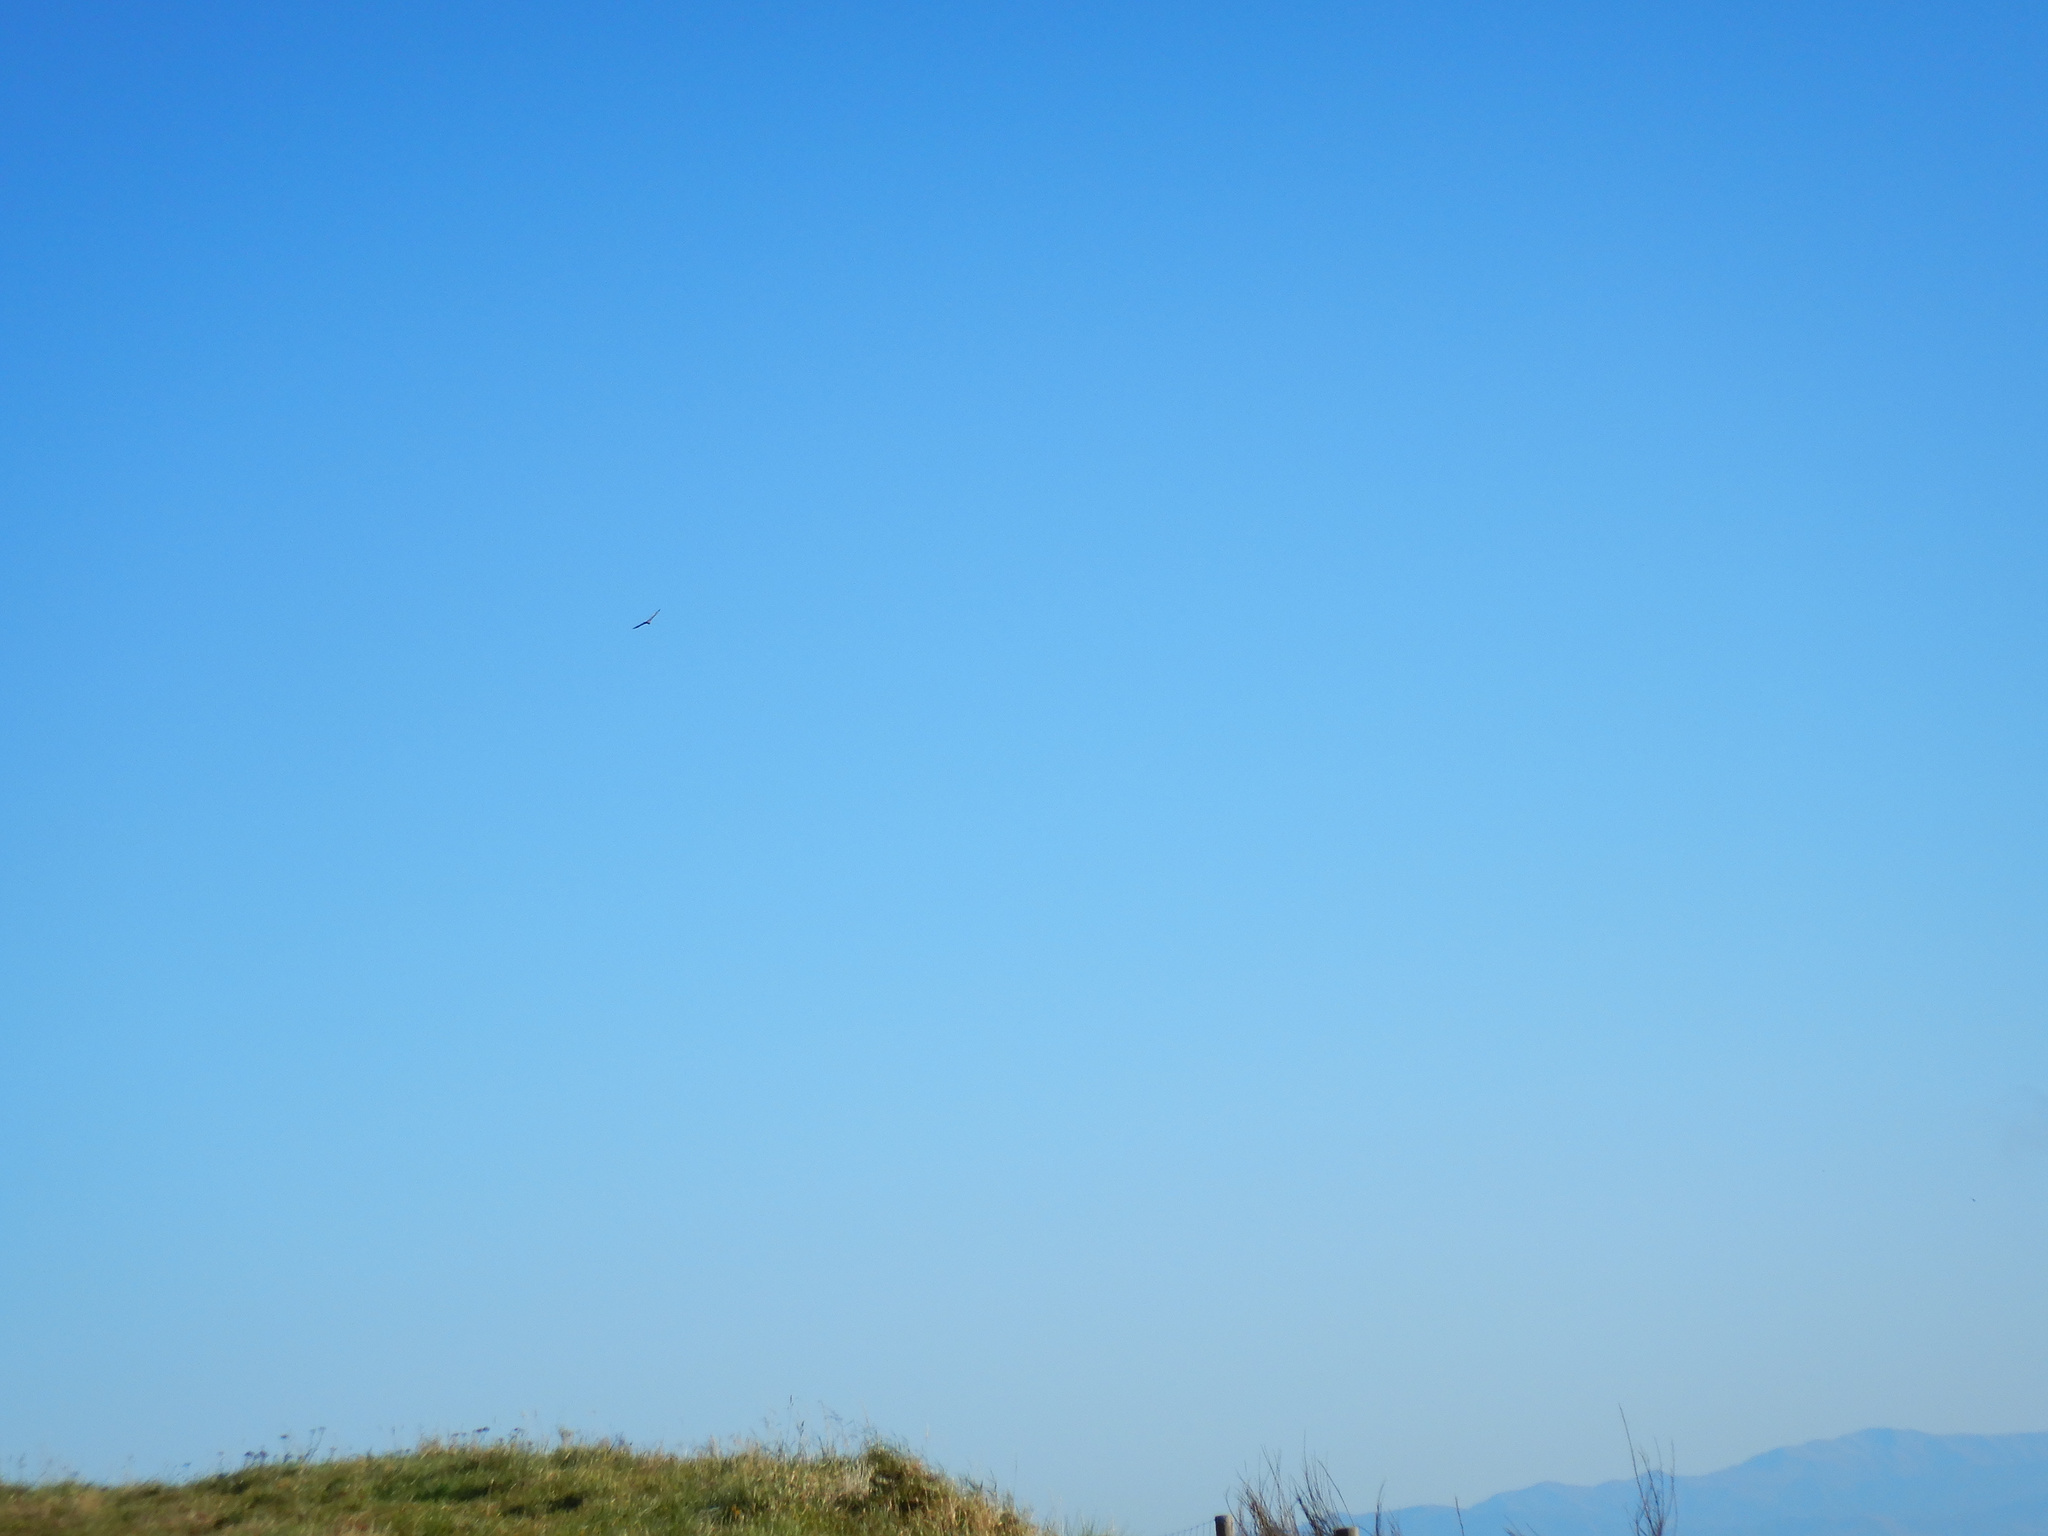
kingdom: Animalia
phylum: Chordata
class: Aves
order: Accipitriformes
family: Accipitridae
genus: Circus
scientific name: Circus approximans
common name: Swamp harrier
